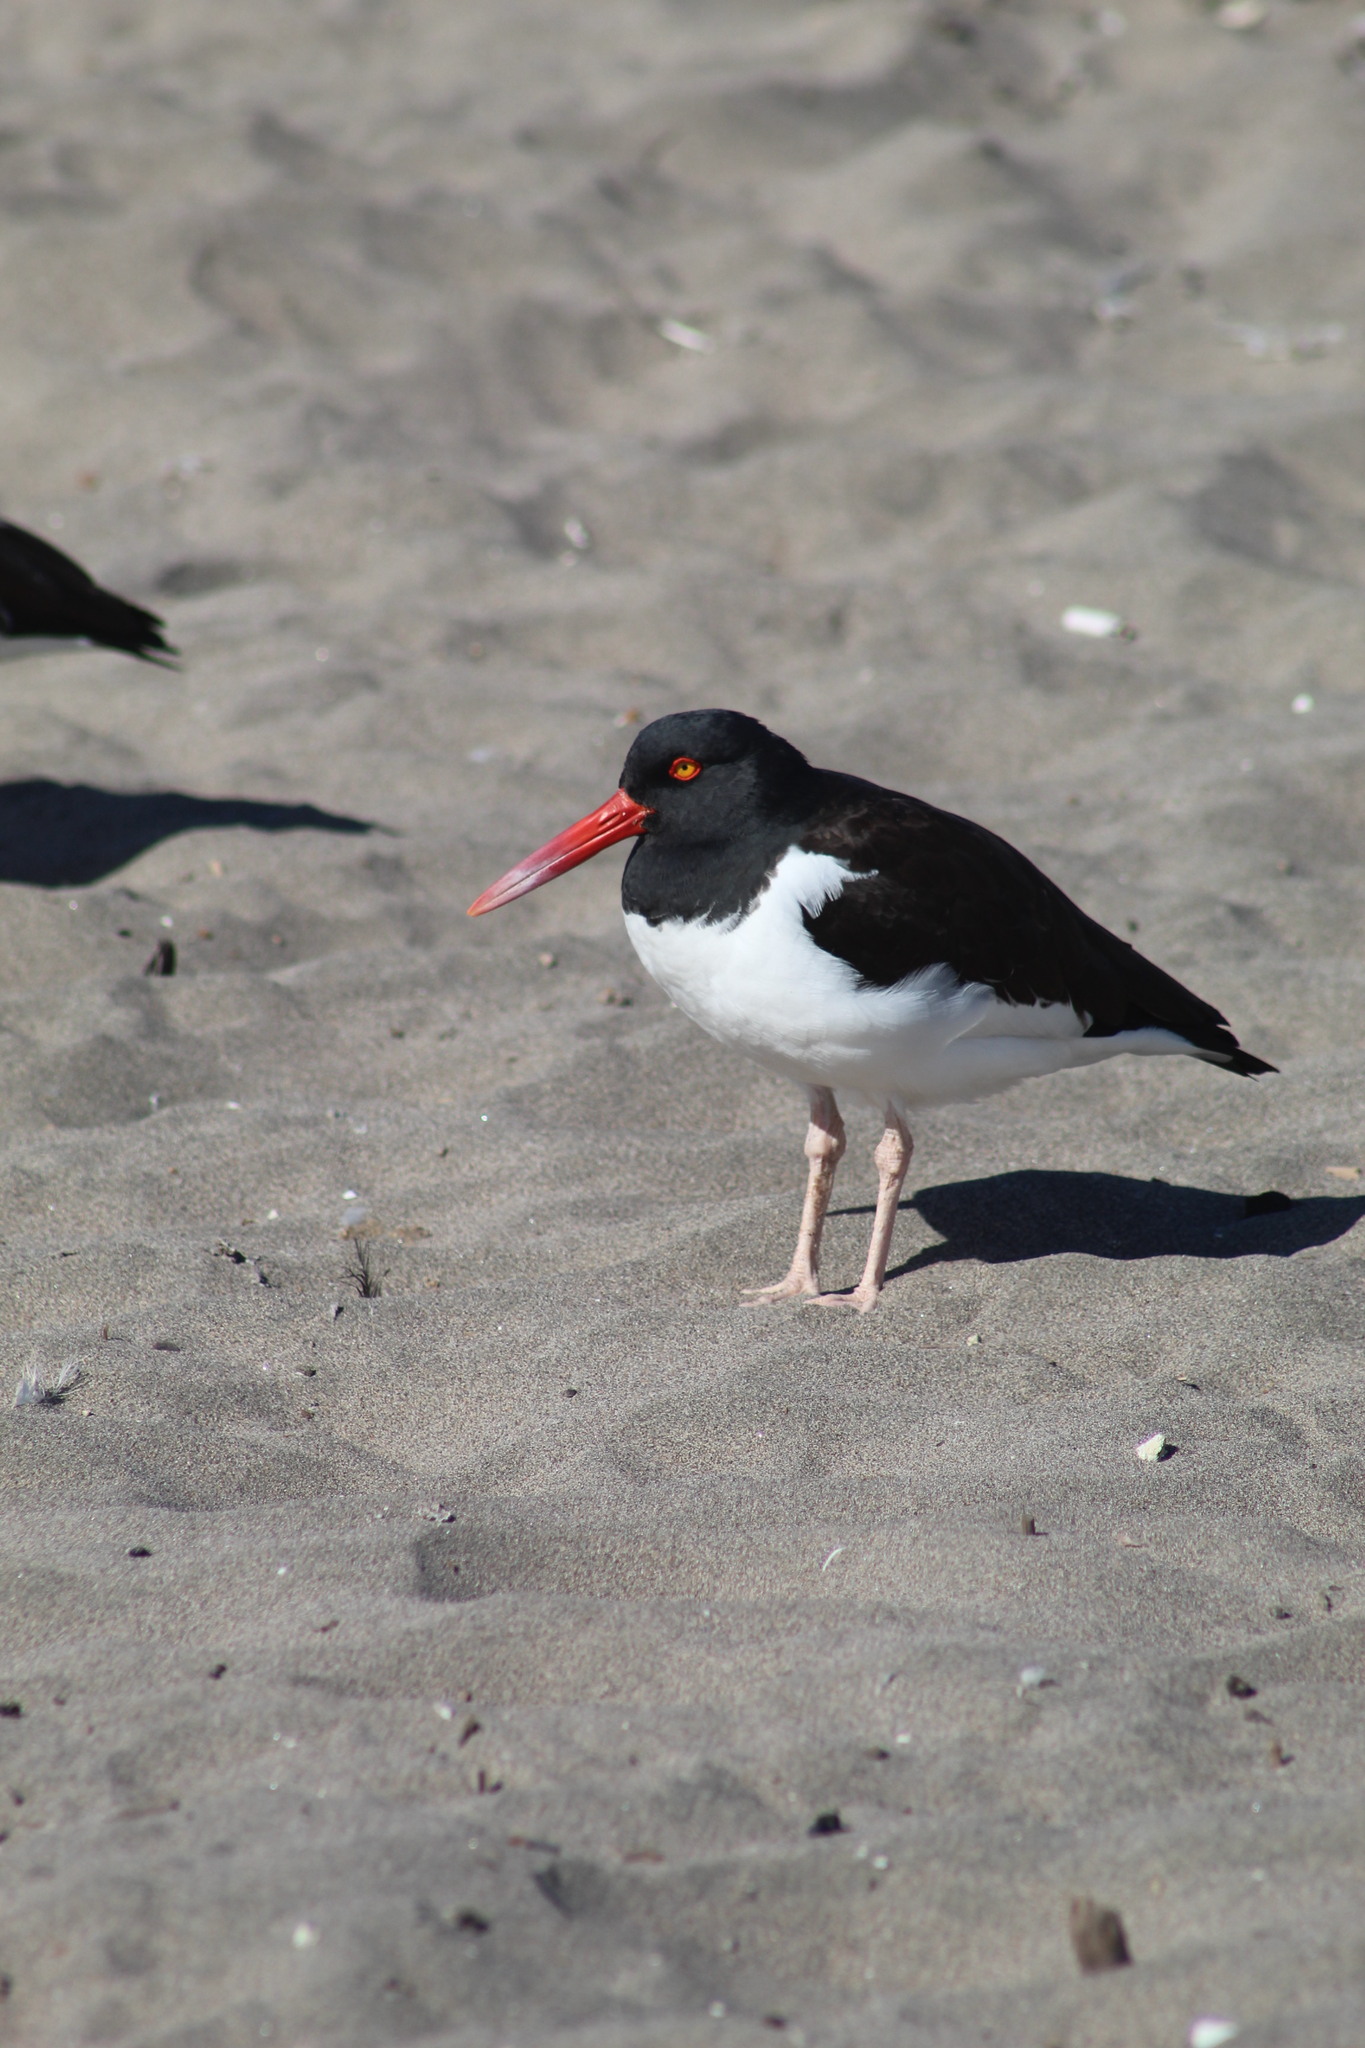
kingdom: Animalia
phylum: Chordata
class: Aves
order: Charadriiformes
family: Haematopodidae
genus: Haematopus
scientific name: Haematopus palliatus
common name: American oystercatcher
